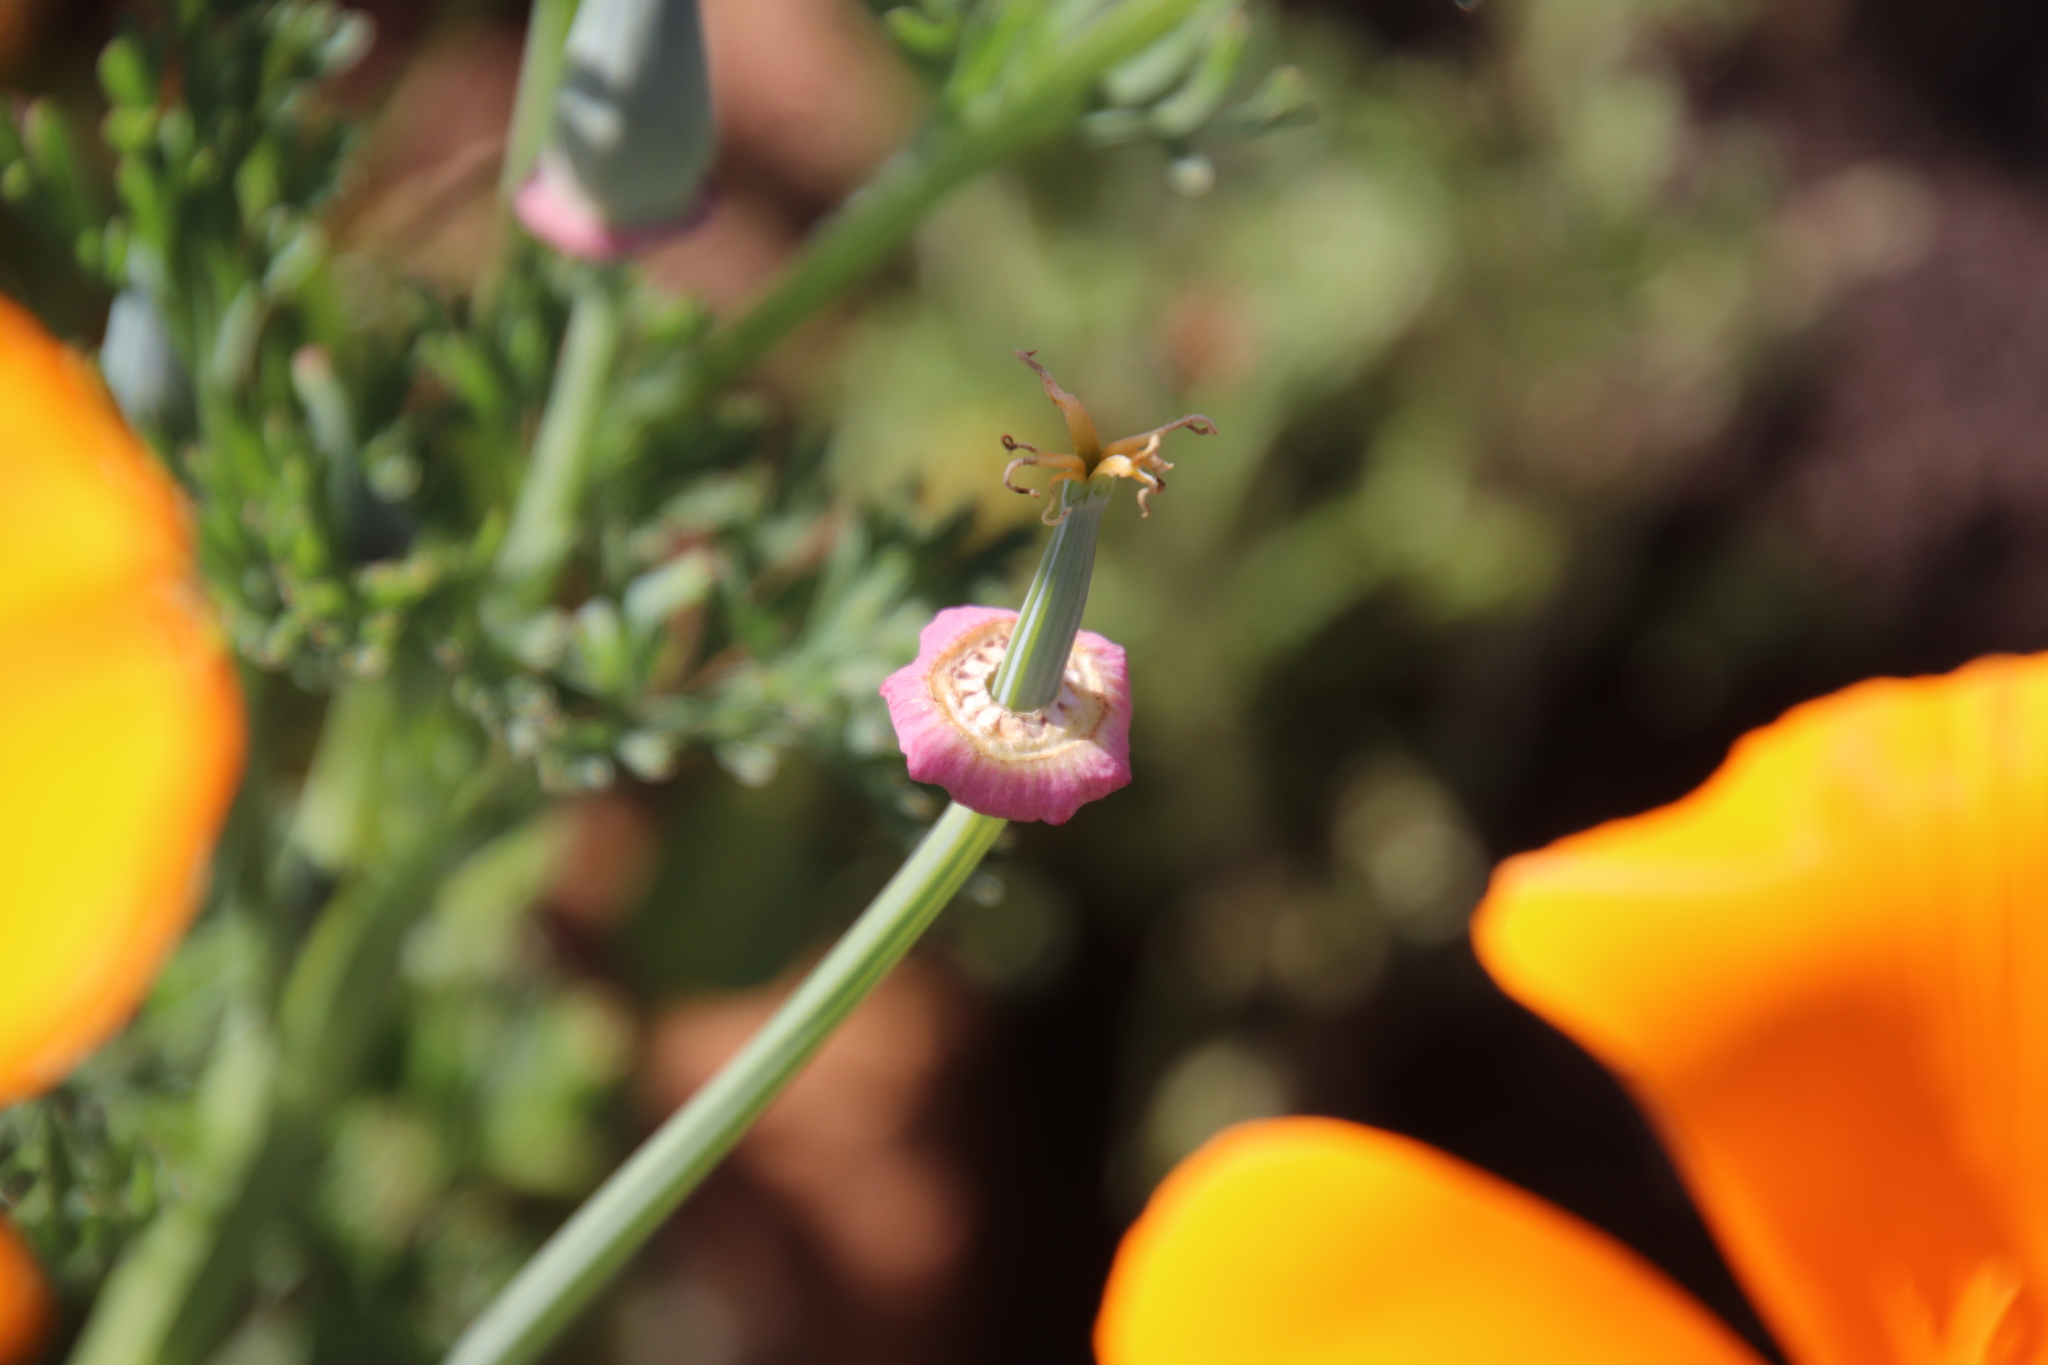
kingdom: Plantae
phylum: Tracheophyta
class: Magnoliopsida
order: Ranunculales
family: Papaveraceae
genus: Eschscholzia
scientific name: Eschscholzia californica
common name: California poppy
